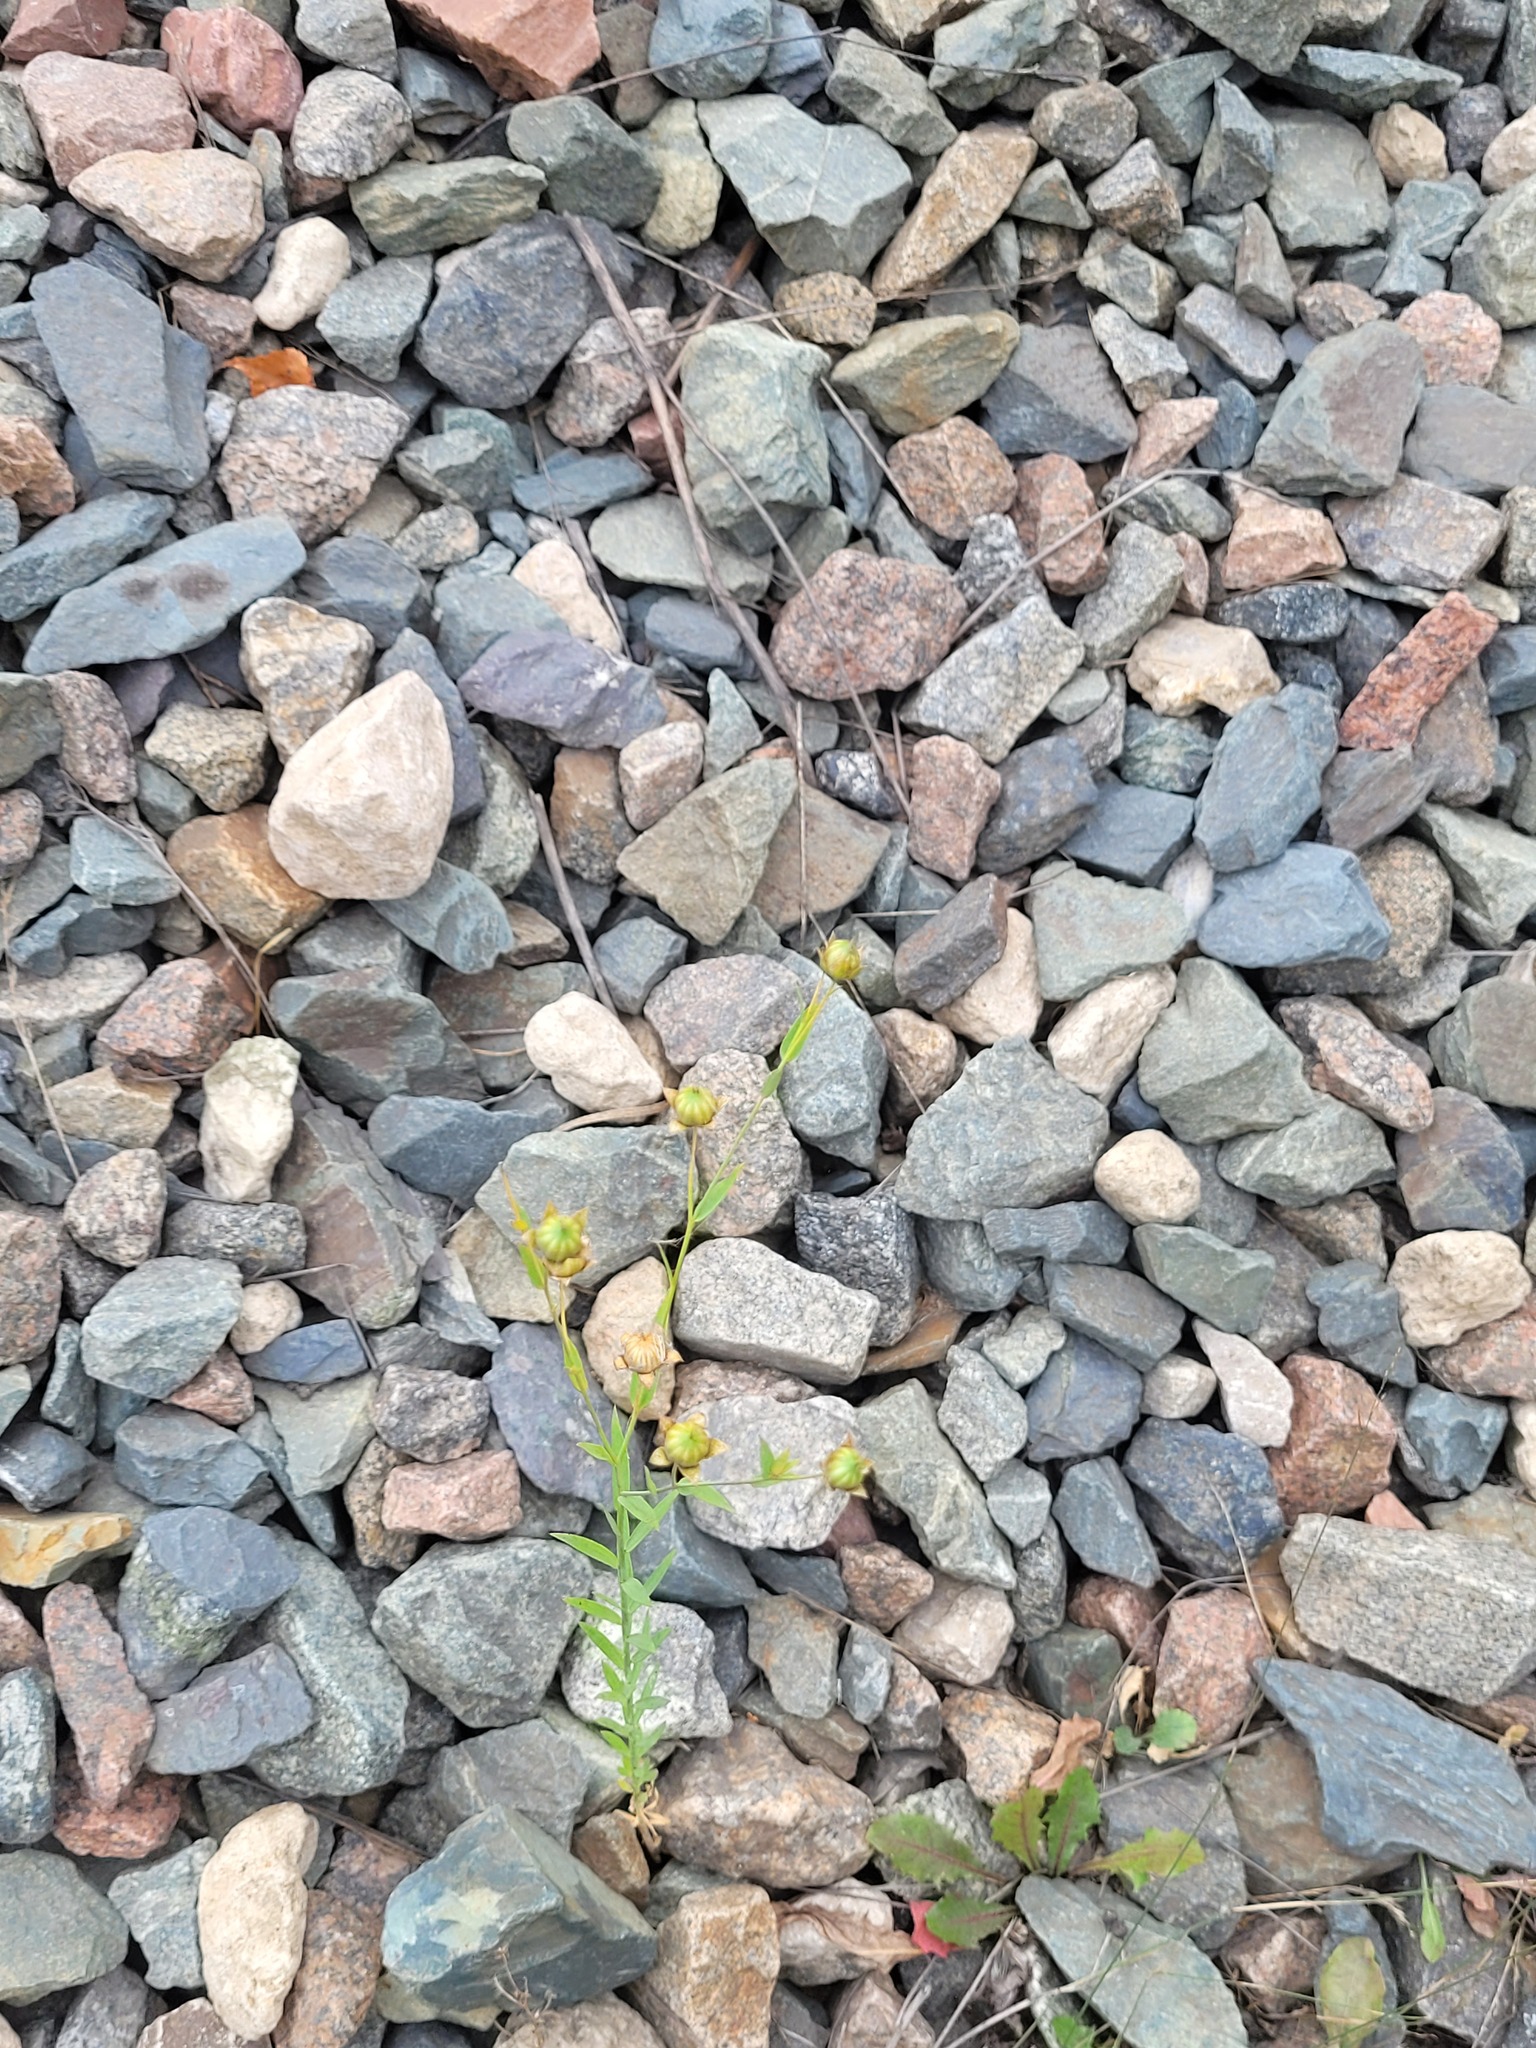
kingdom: Plantae
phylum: Tracheophyta
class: Magnoliopsida
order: Malpighiales
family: Linaceae
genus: Linum
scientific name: Linum usitatissimum
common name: Flax
